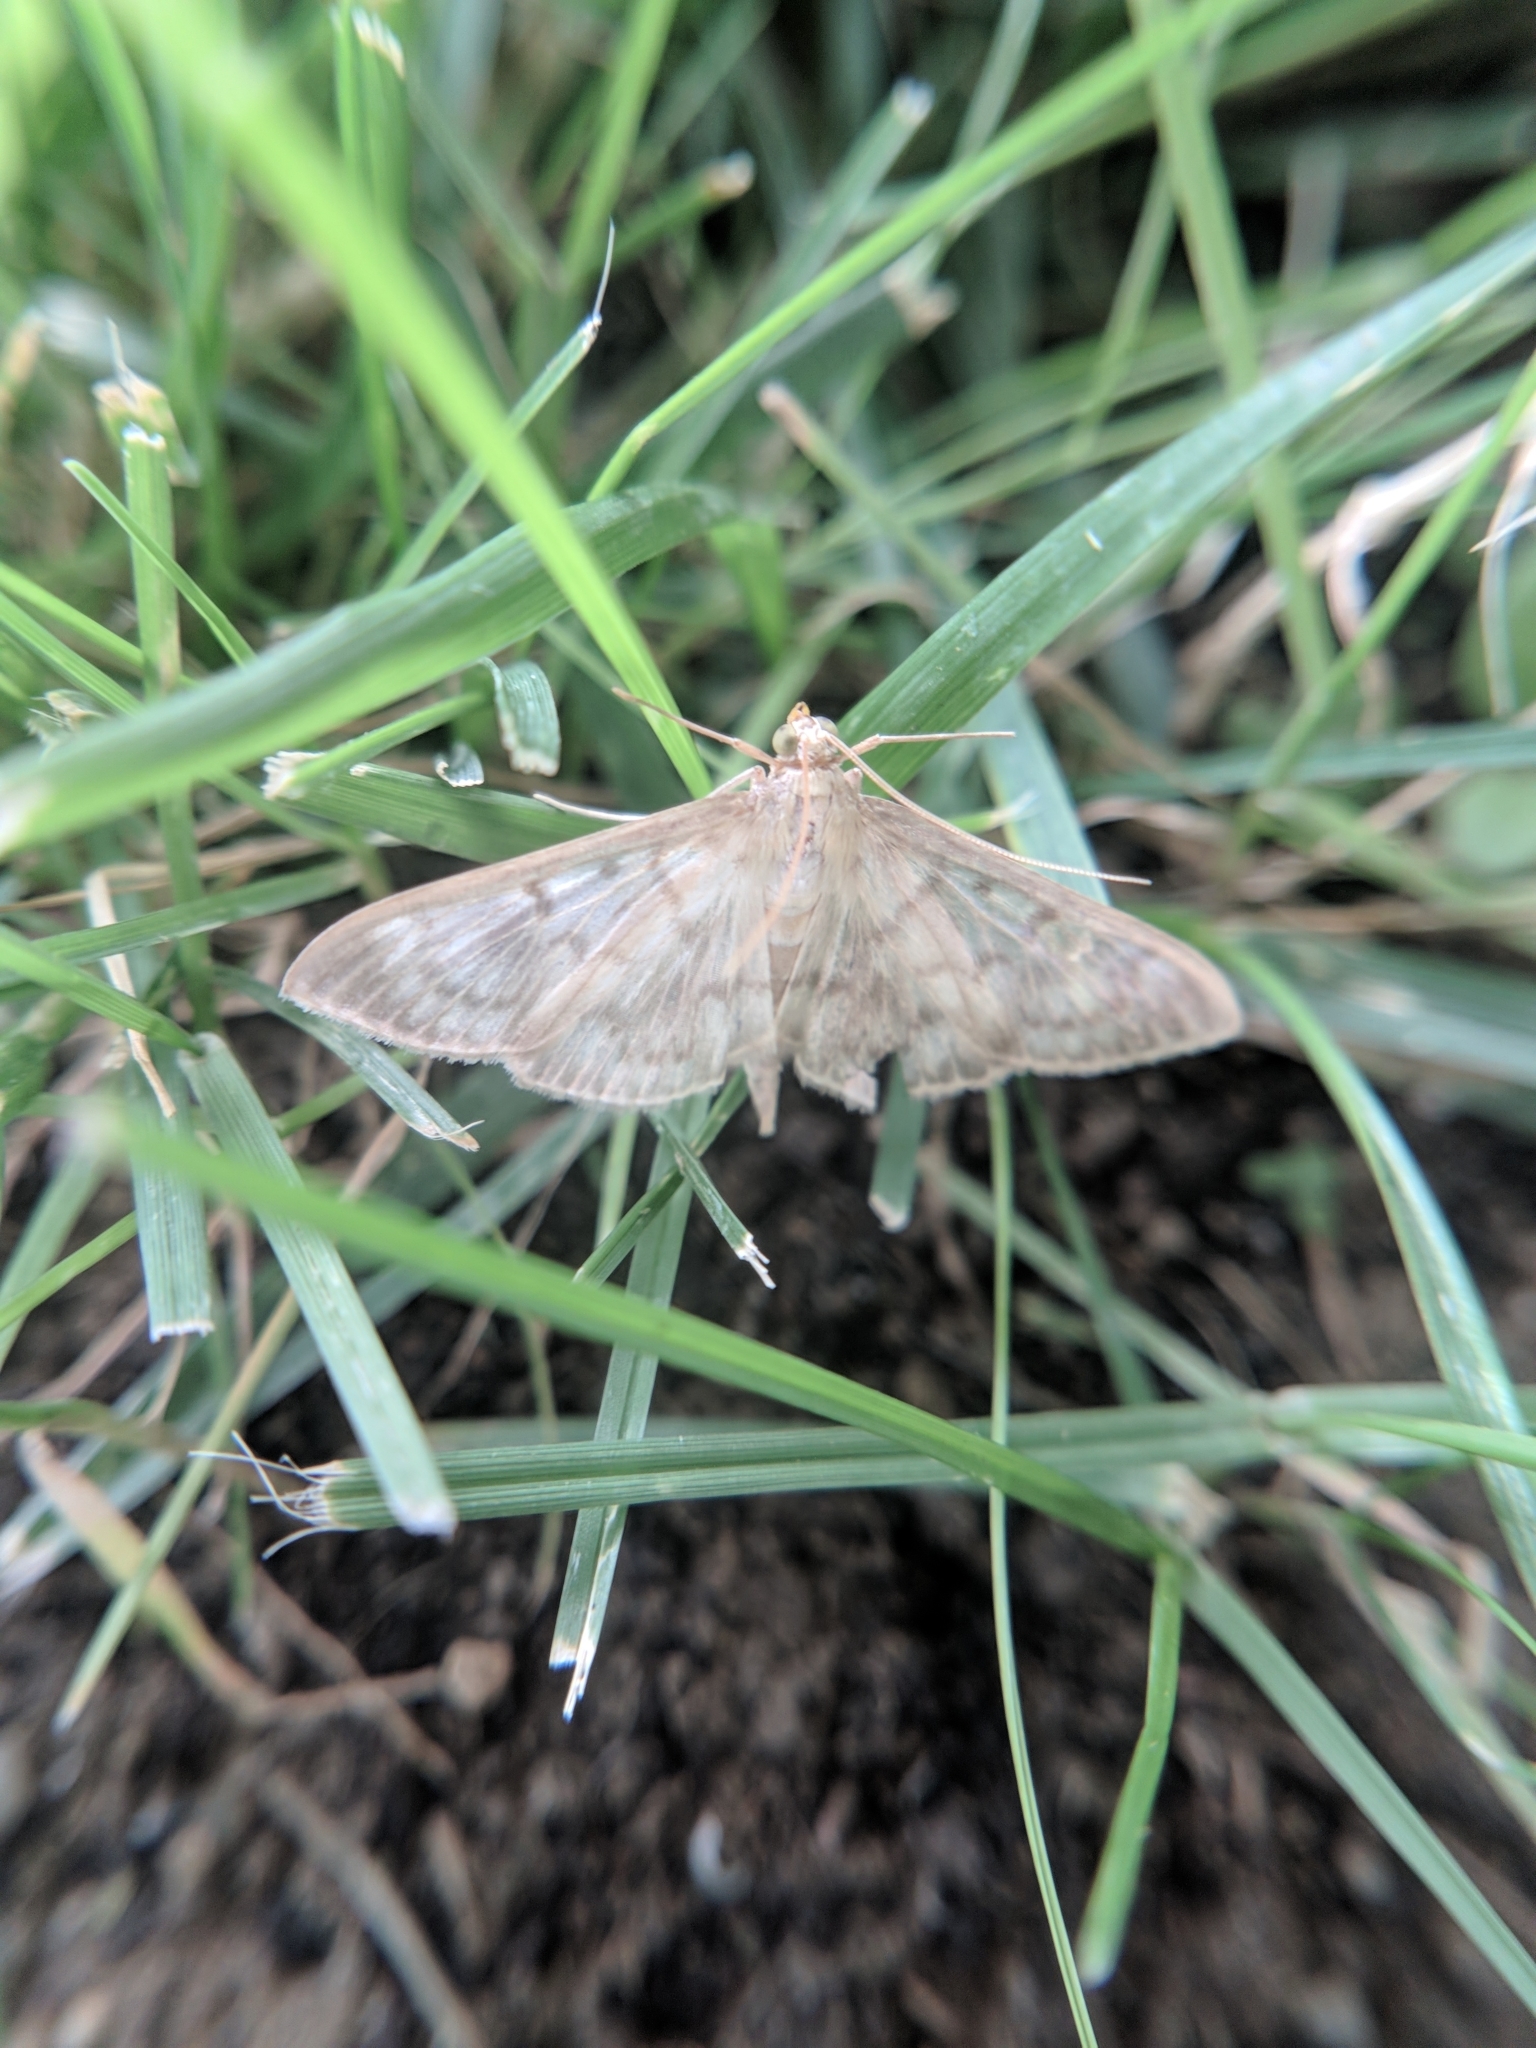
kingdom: Animalia
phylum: Arthropoda
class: Insecta
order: Lepidoptera
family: Crambidae
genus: Patania
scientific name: Patania ruralis
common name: Mother of pearl
